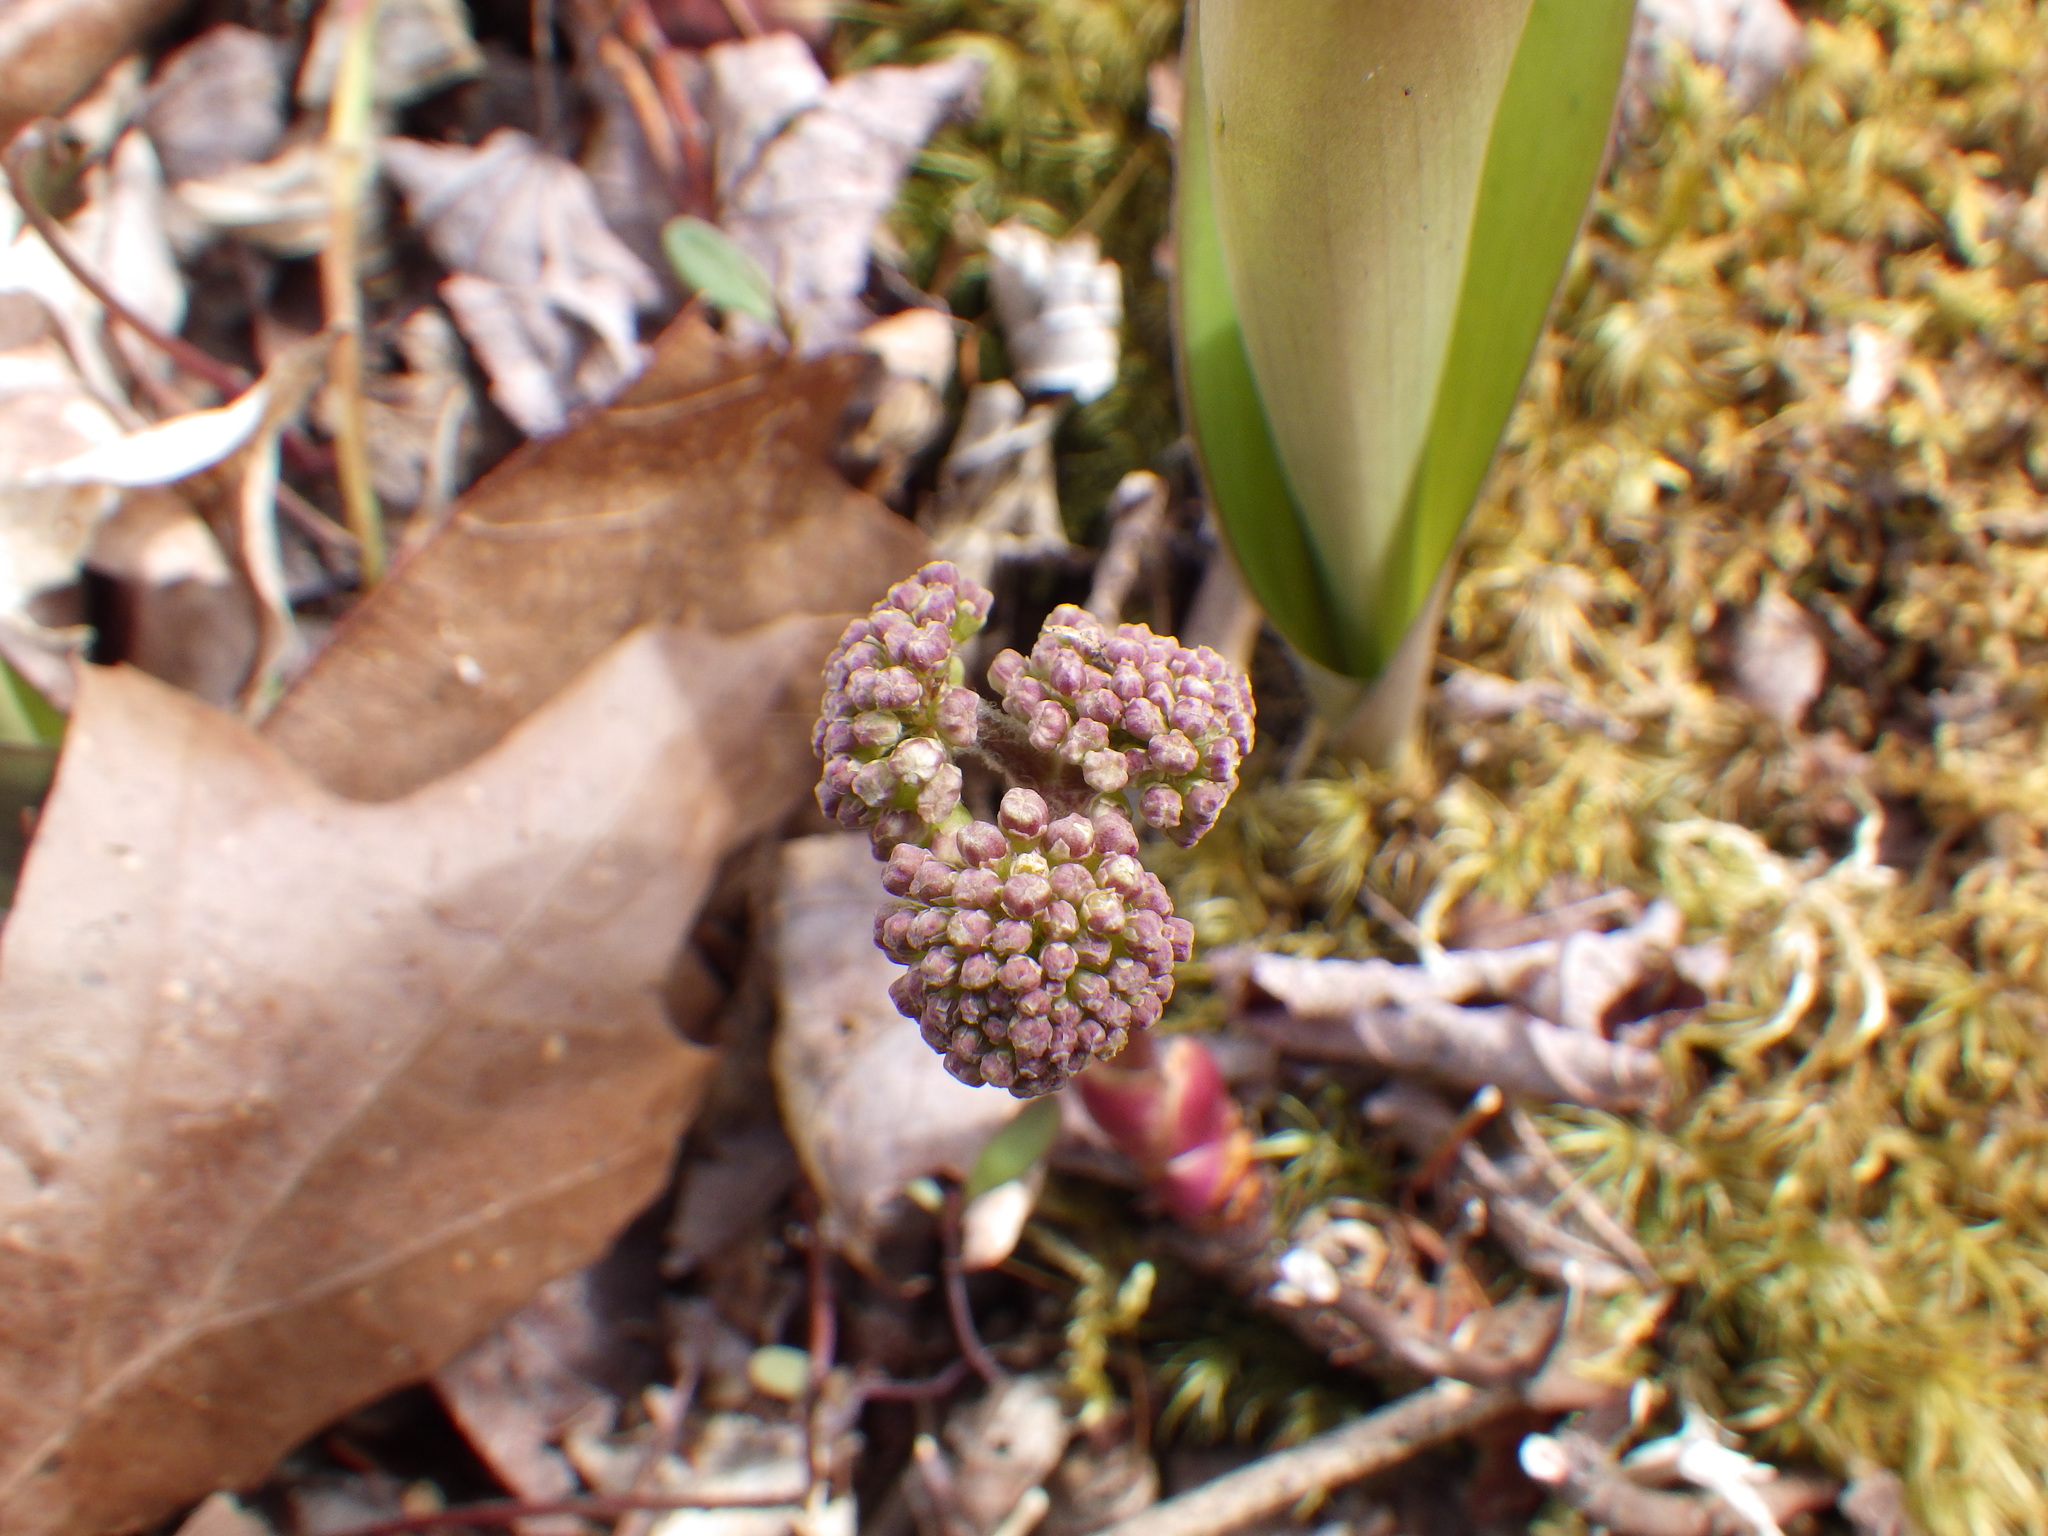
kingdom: Plantae
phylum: Tracheophyta
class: Magnoliopsida
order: Apiales
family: Araliaceae
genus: Aralia
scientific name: Aralia nudicaulis
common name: Wild sarsaparilla
